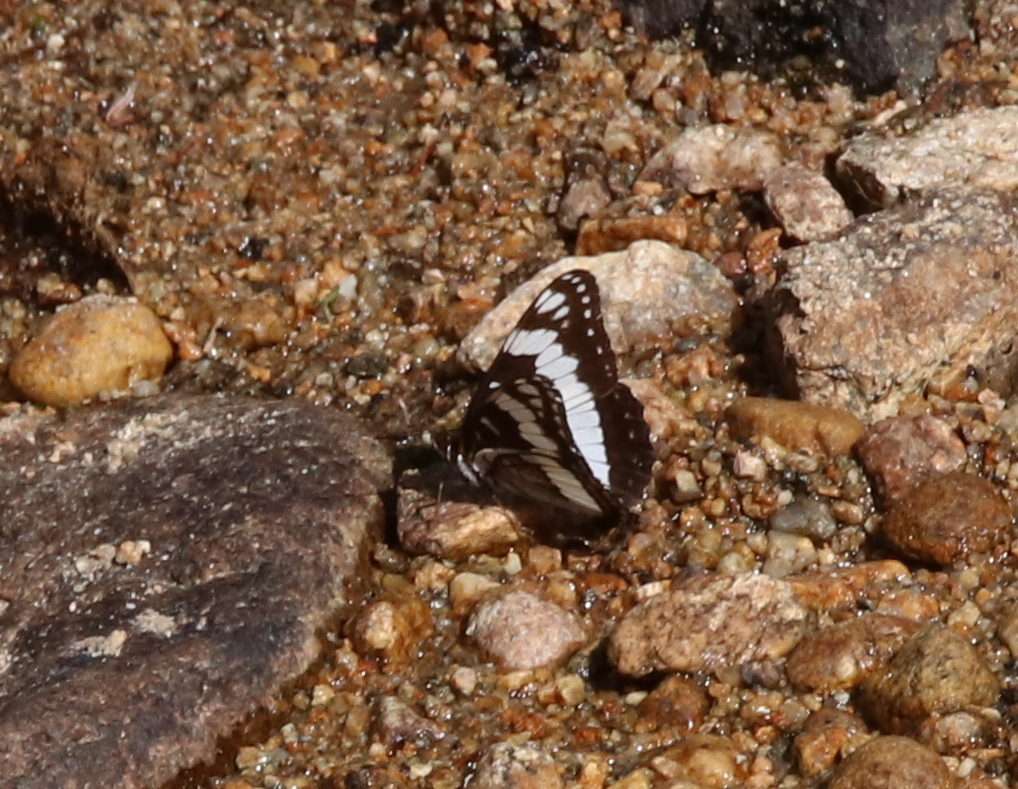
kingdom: Animalia
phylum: Arthropoda
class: Insecta
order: Lepidoptera
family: Nymphalidae
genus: Limenitis
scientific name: Limenitis weidemeyerii
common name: Weidemeyer's admiral
